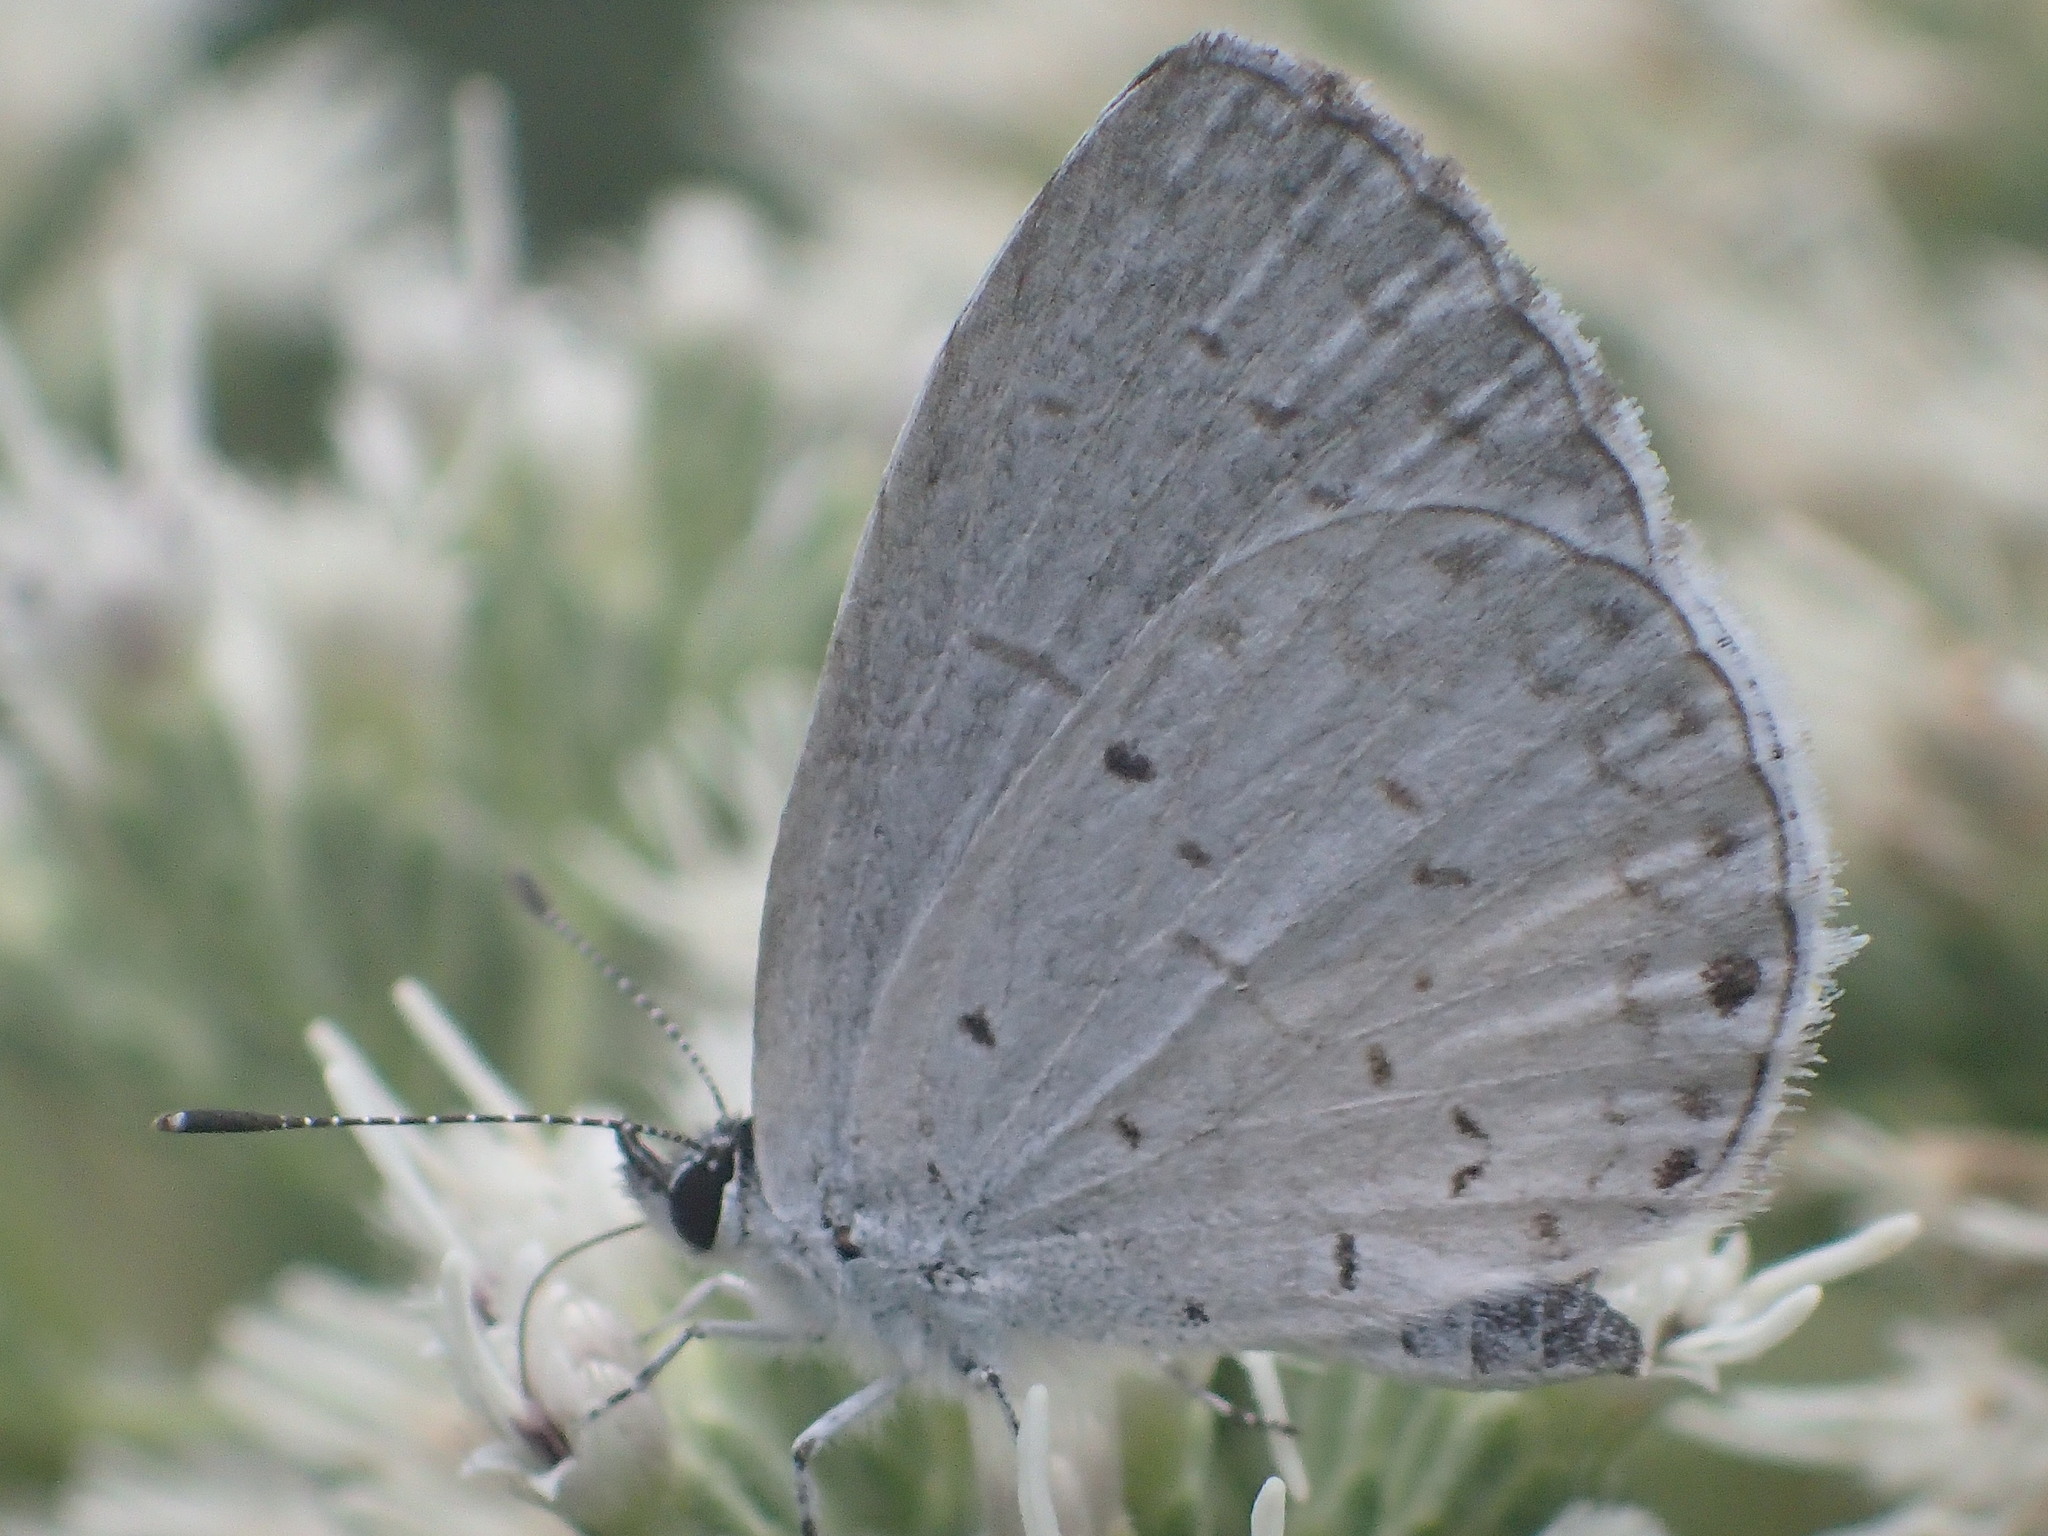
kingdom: Animalia
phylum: Arthropoda
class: Insecta
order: Lepidoptera
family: Lycaenidae
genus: Cyaniris
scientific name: Cyaniris neglecta
